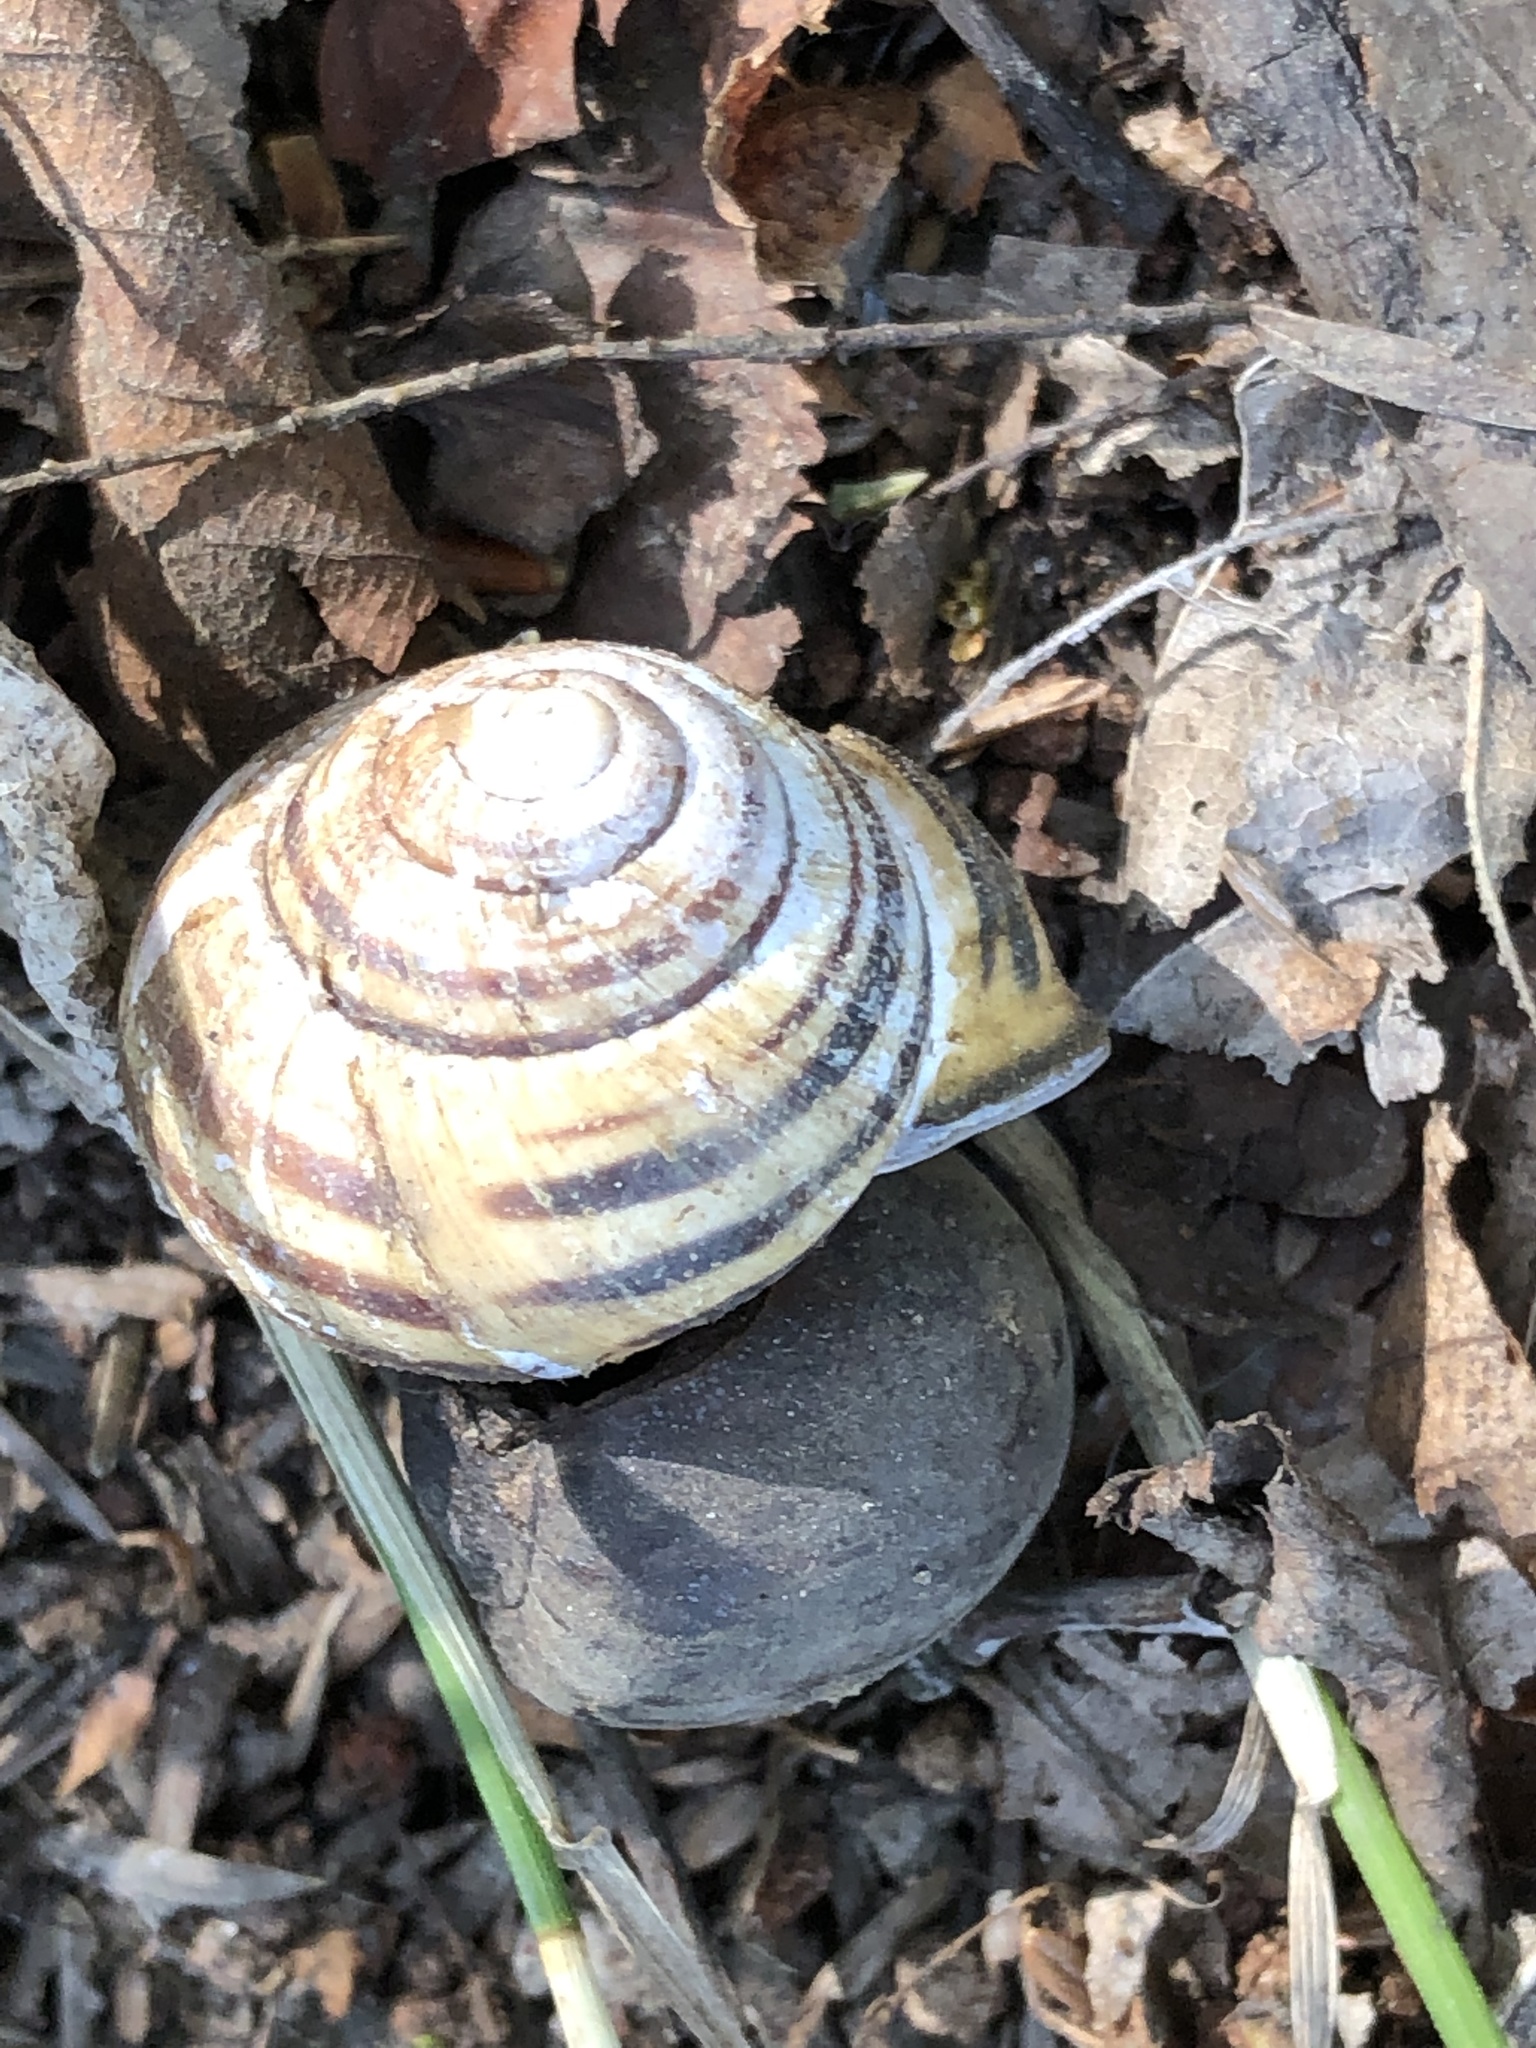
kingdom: Animalia
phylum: Mollusca
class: Gastropoda
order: Stylommatophora
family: Helicidae
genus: Cepaea
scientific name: Cepaea nemoralis
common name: Grovesnail
